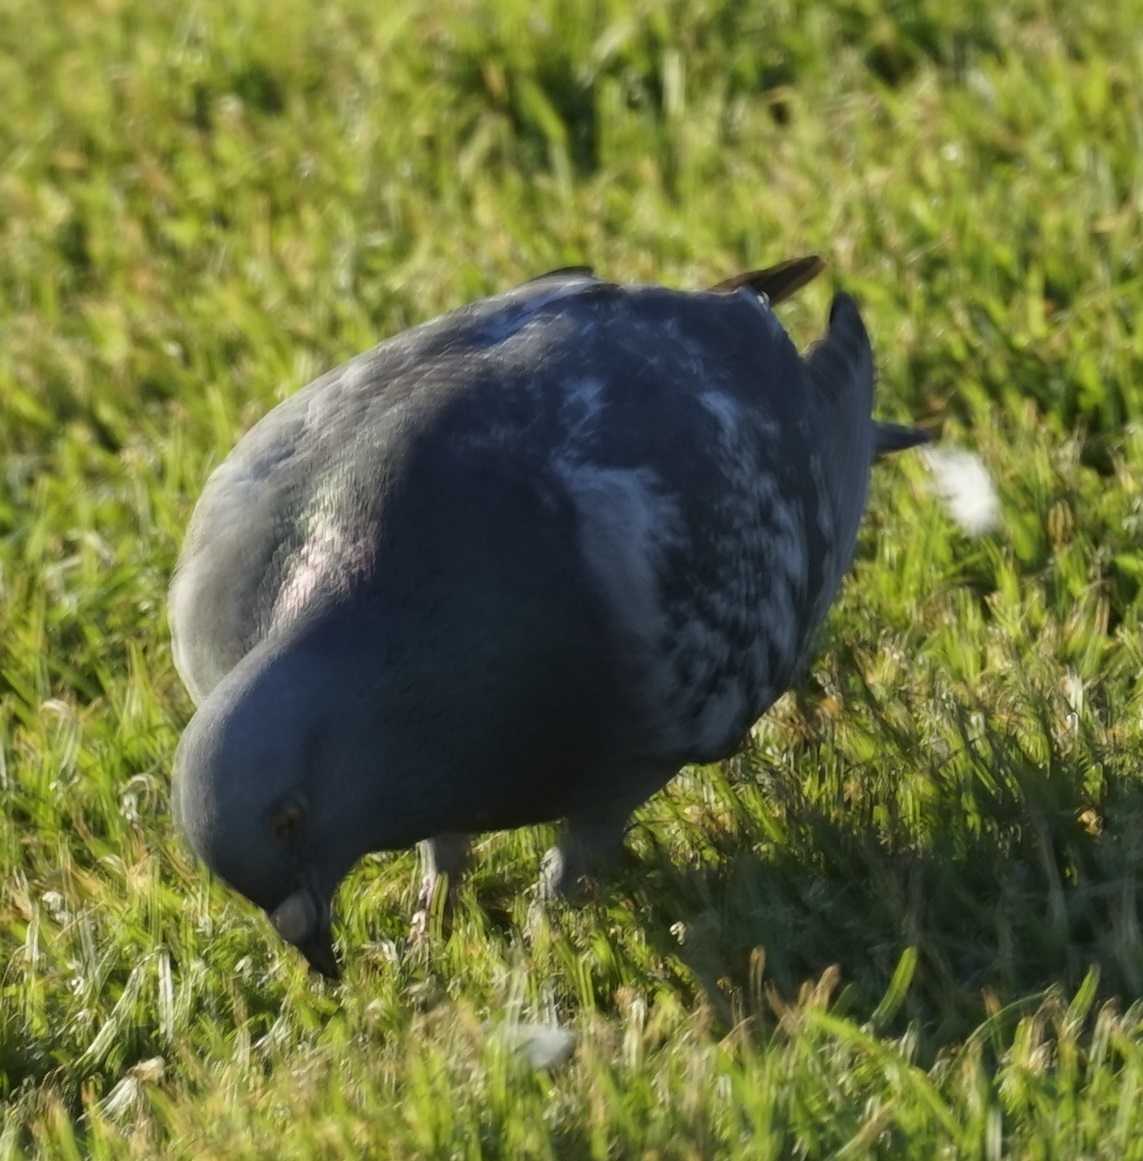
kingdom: Animalia
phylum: Chordata
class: Aves
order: Columbiformes
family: Columbidae
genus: Columba
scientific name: Columba livia
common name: Rock pigeon
